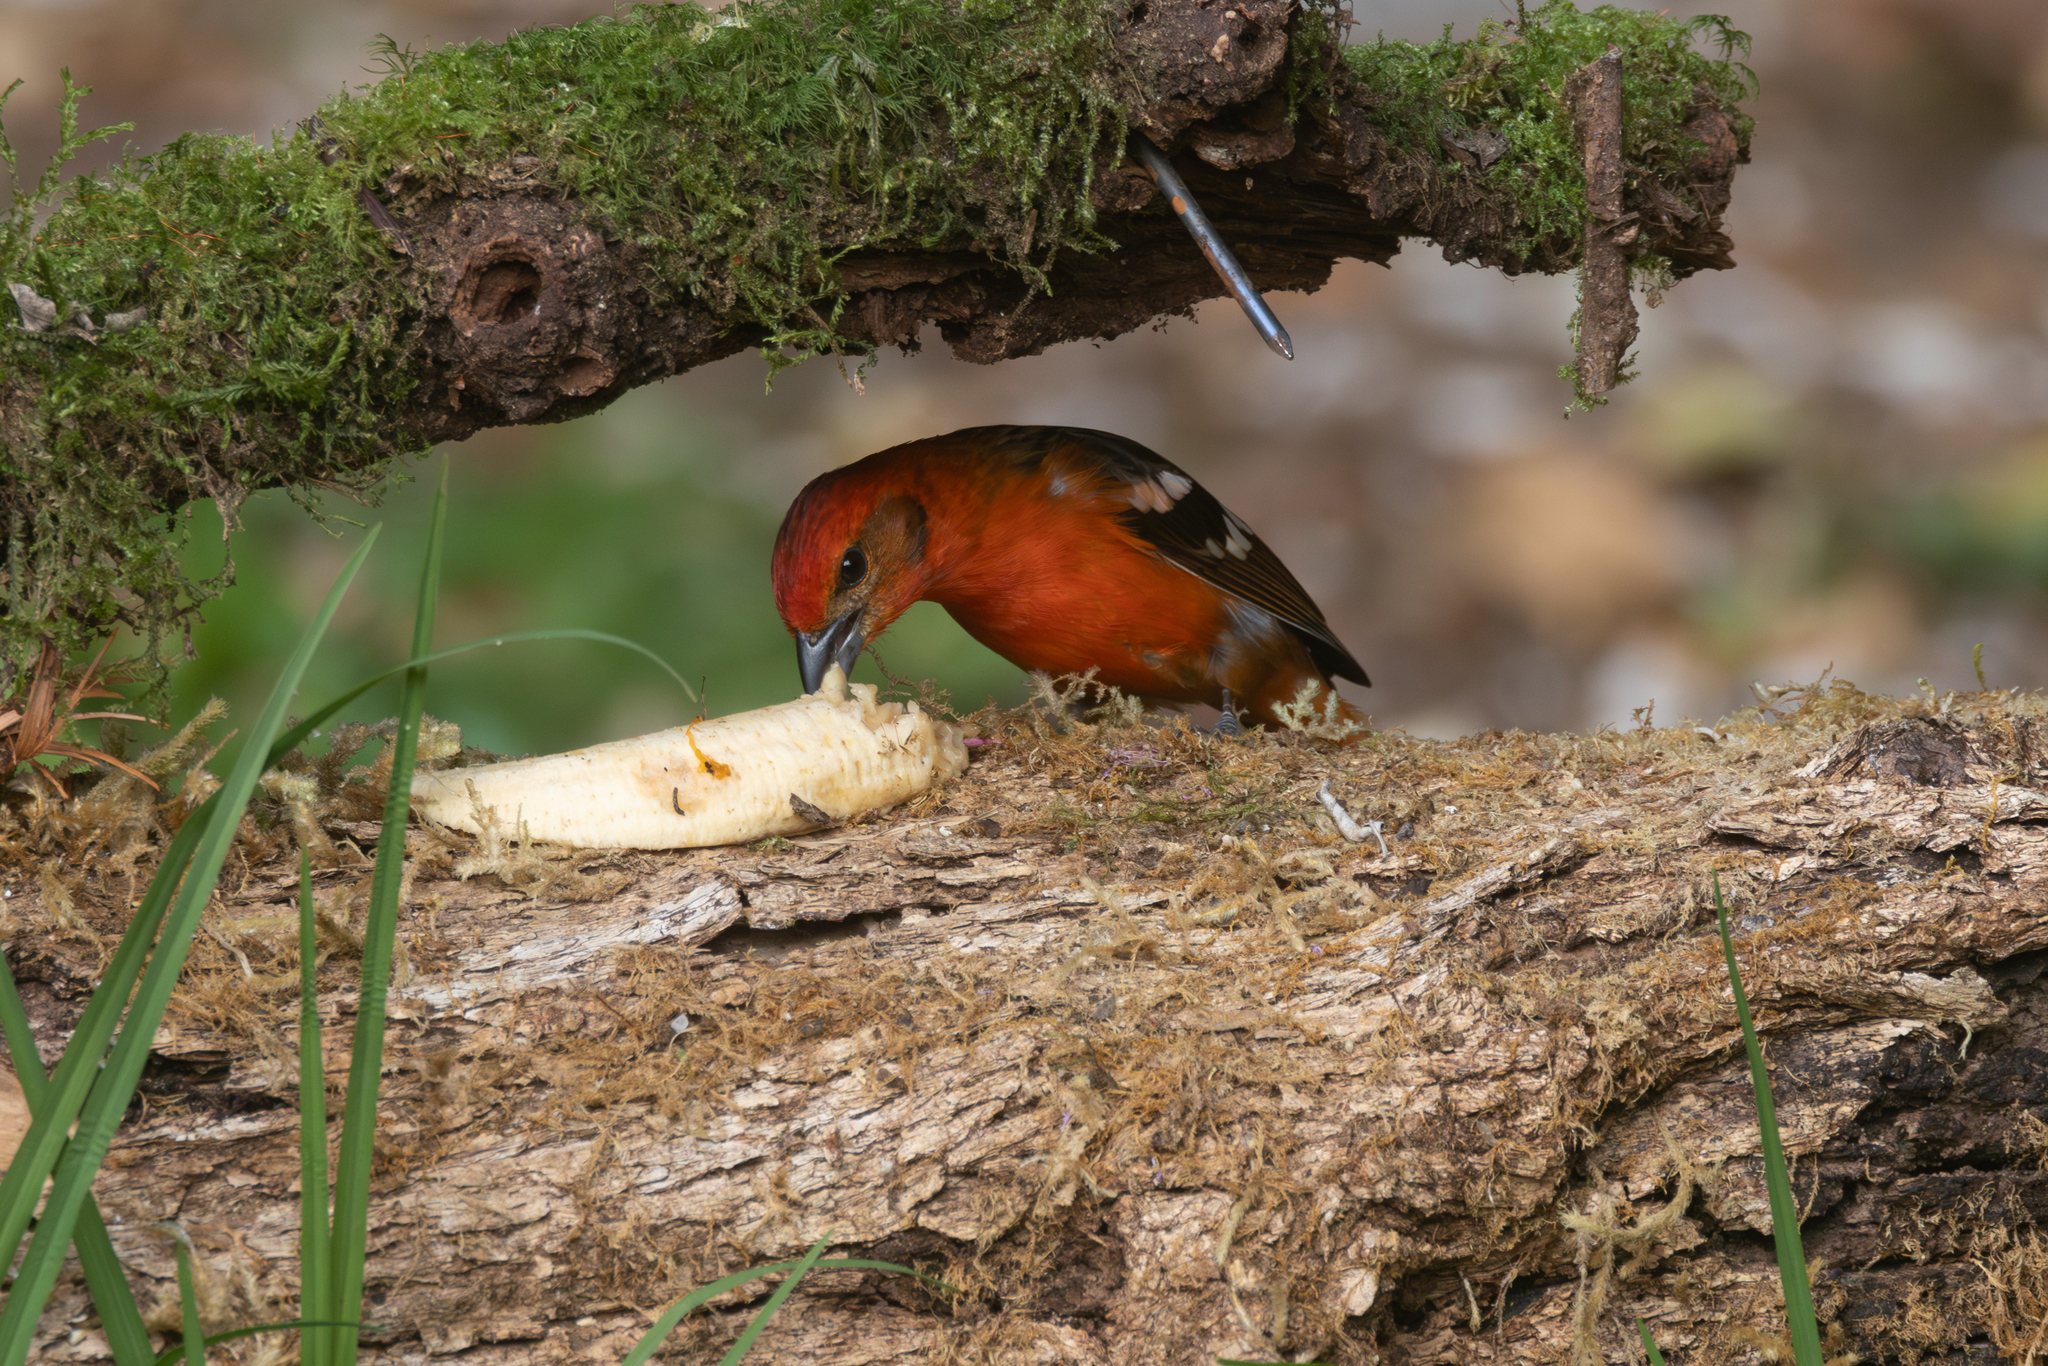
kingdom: Animalia
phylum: Chordata
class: Aves
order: Passeriformes
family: Cardinalidae
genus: Piranga
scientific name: Piranga bidentata
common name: Flame-colored tanager
